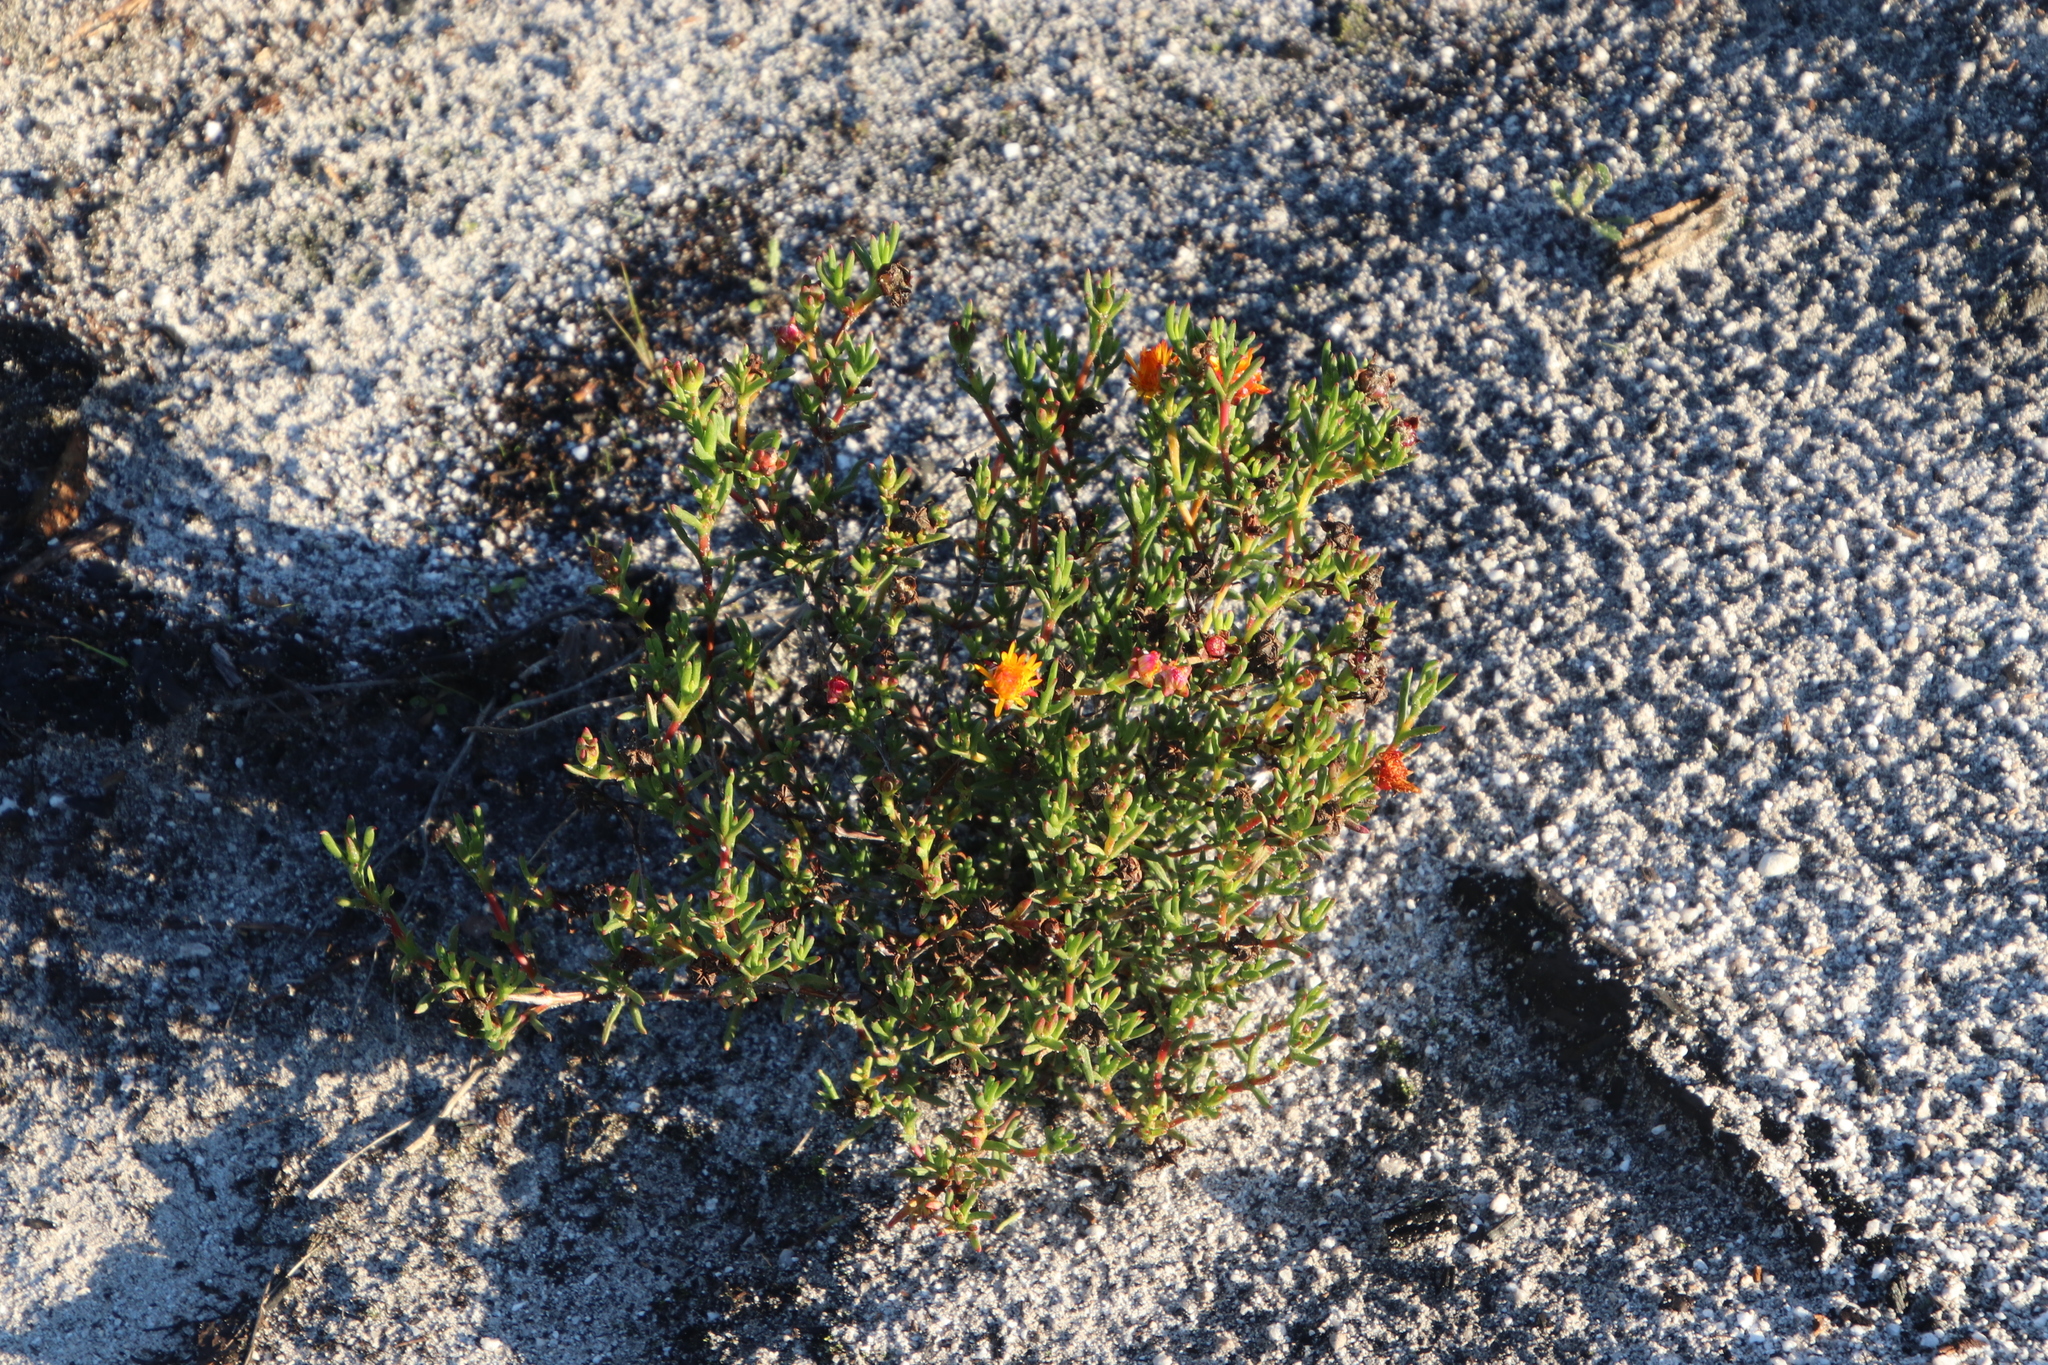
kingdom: Plantae
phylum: Tracheophyta
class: Magnoliopsida
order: Caryophyllales
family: Aizoaceae
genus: Lampranthus
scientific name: Lampranthus bicolor
